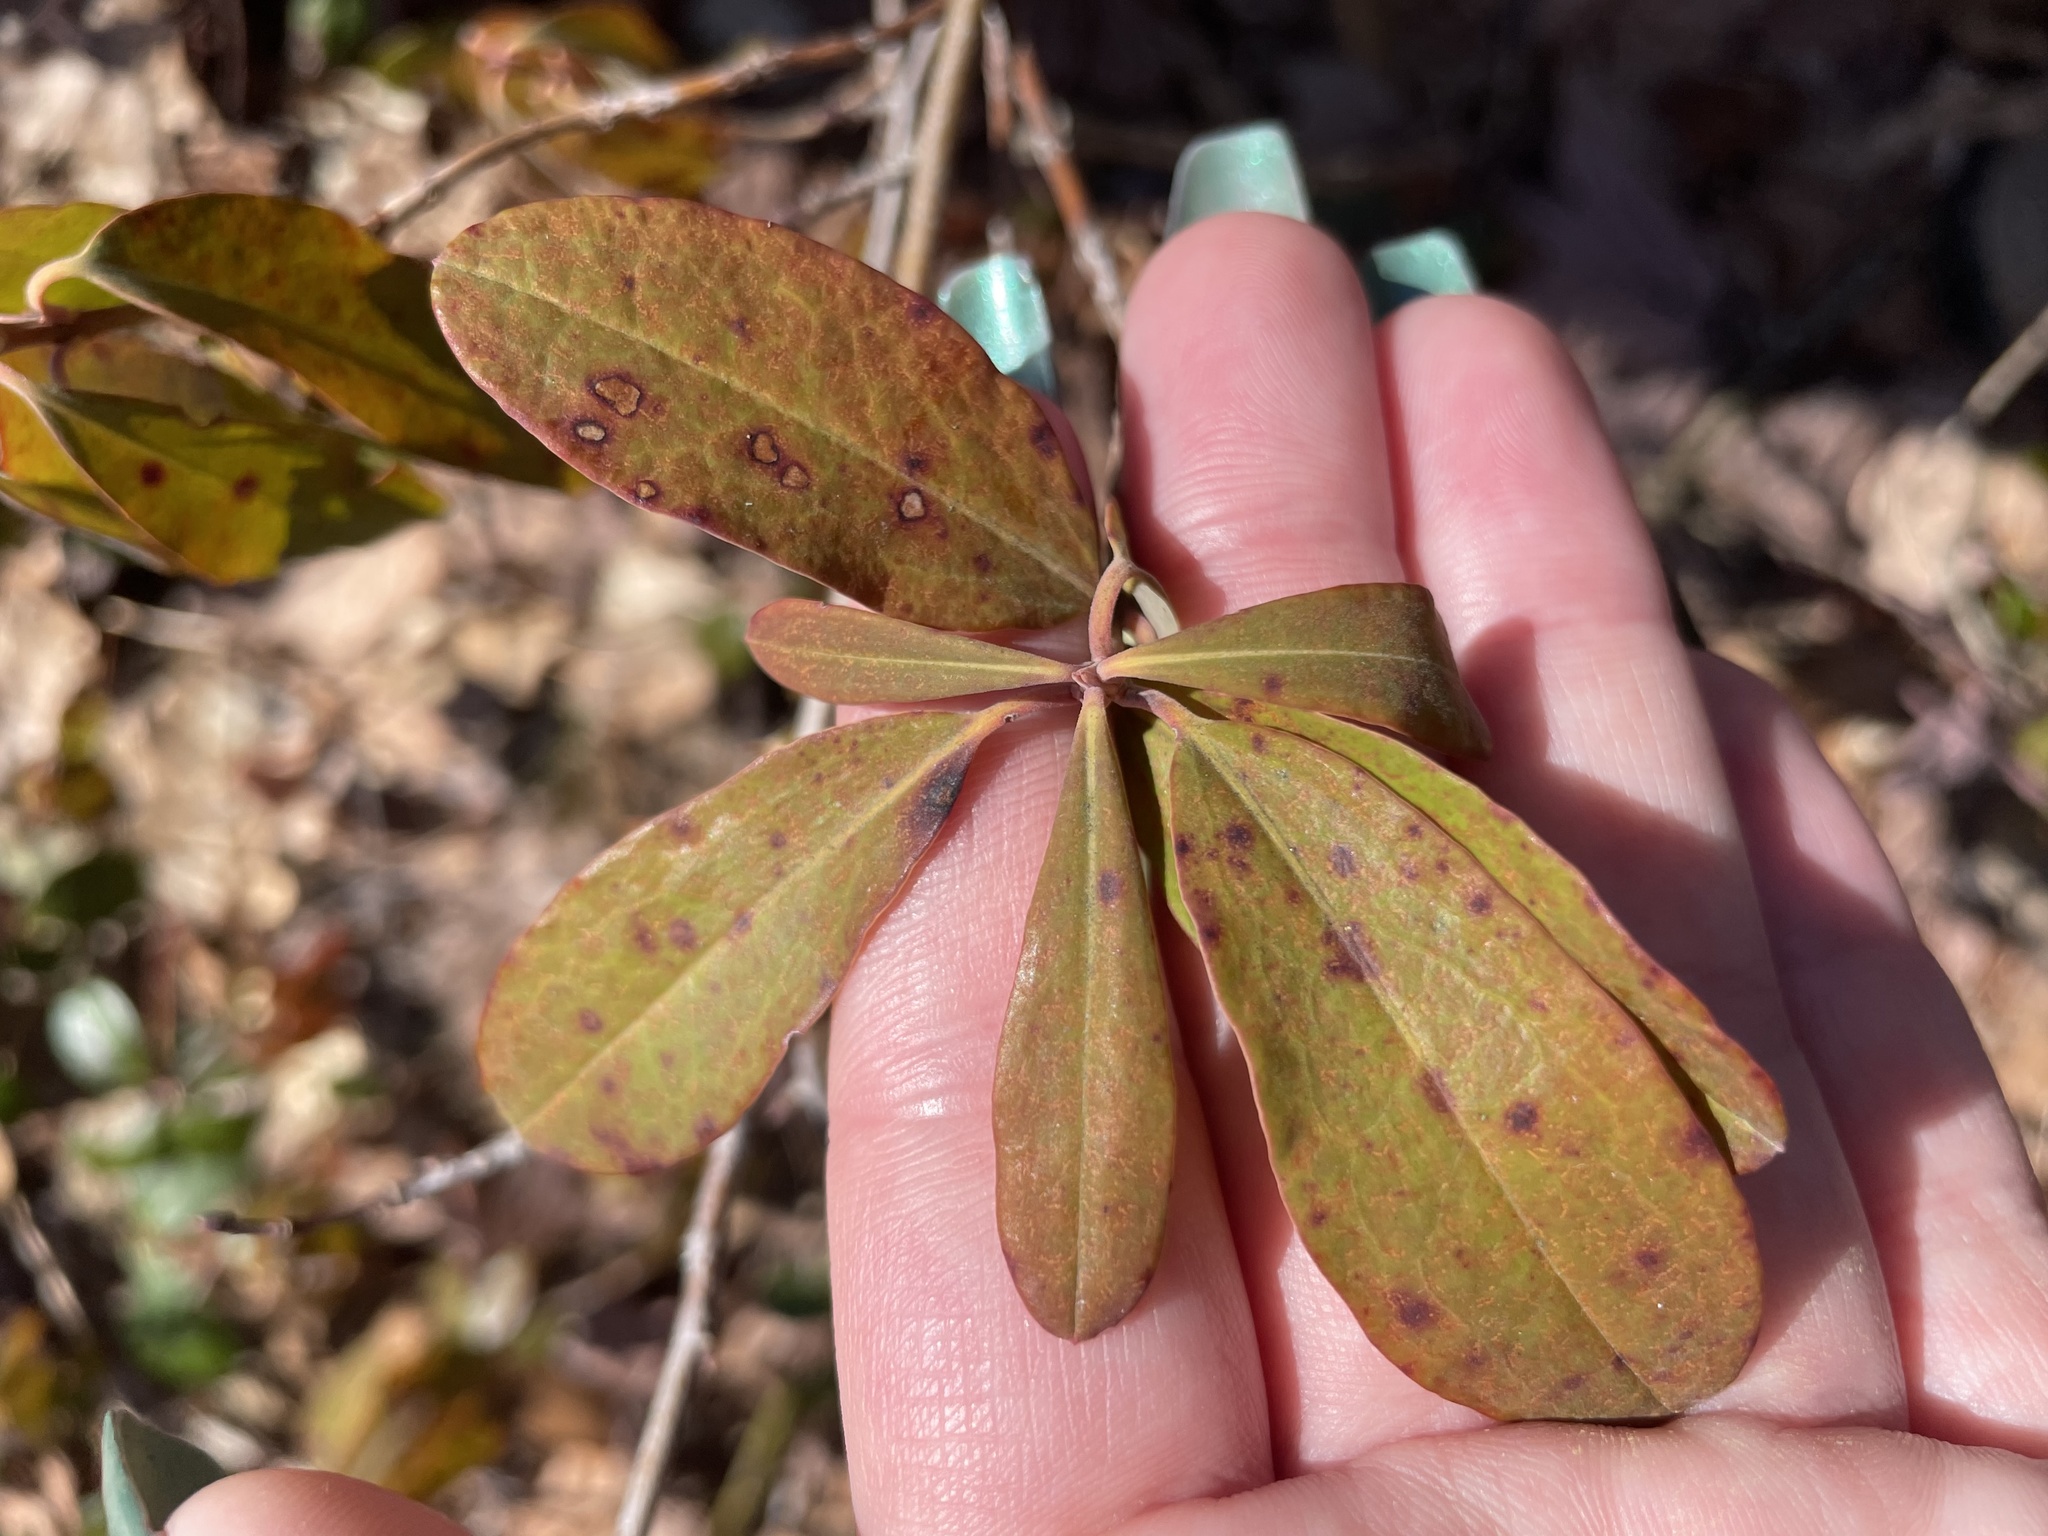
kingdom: Plantae
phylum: Tracheophyta
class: Magnoliopsida
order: Ericales
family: Ericaceae
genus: Kalmia
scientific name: Kalmia angustifolia
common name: Sheep-laurel
